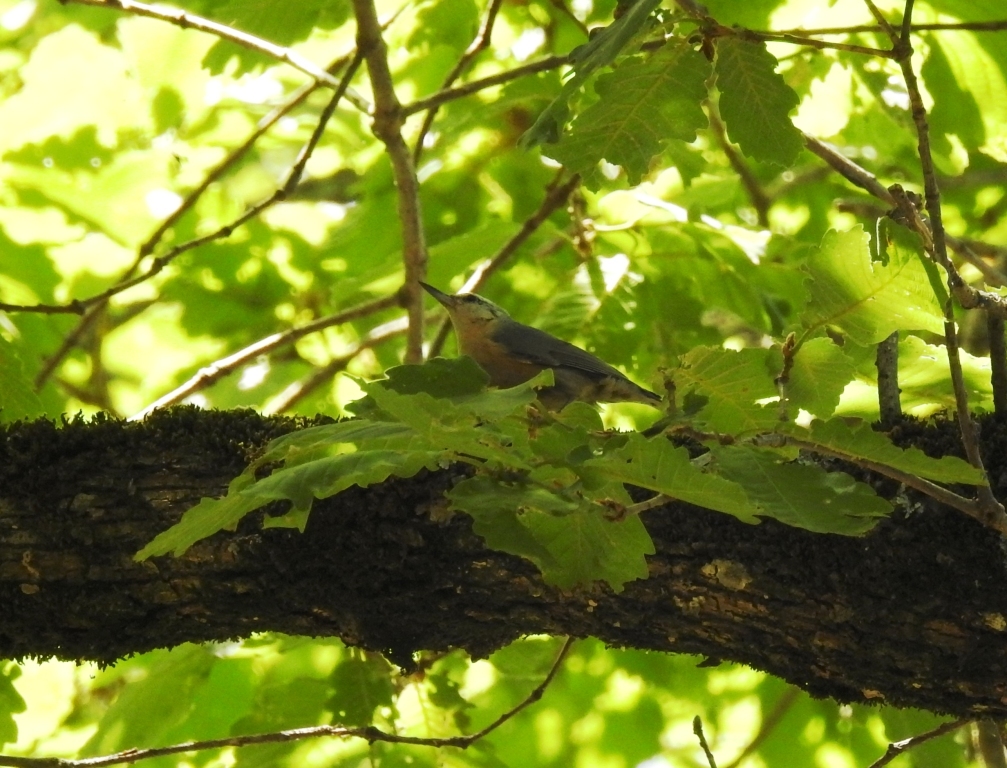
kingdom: Animalia
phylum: Chordata
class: Aves
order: Passeriformes
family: Sittidae
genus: Sitta
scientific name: Sitta ledanti
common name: Algerian nuthatch
